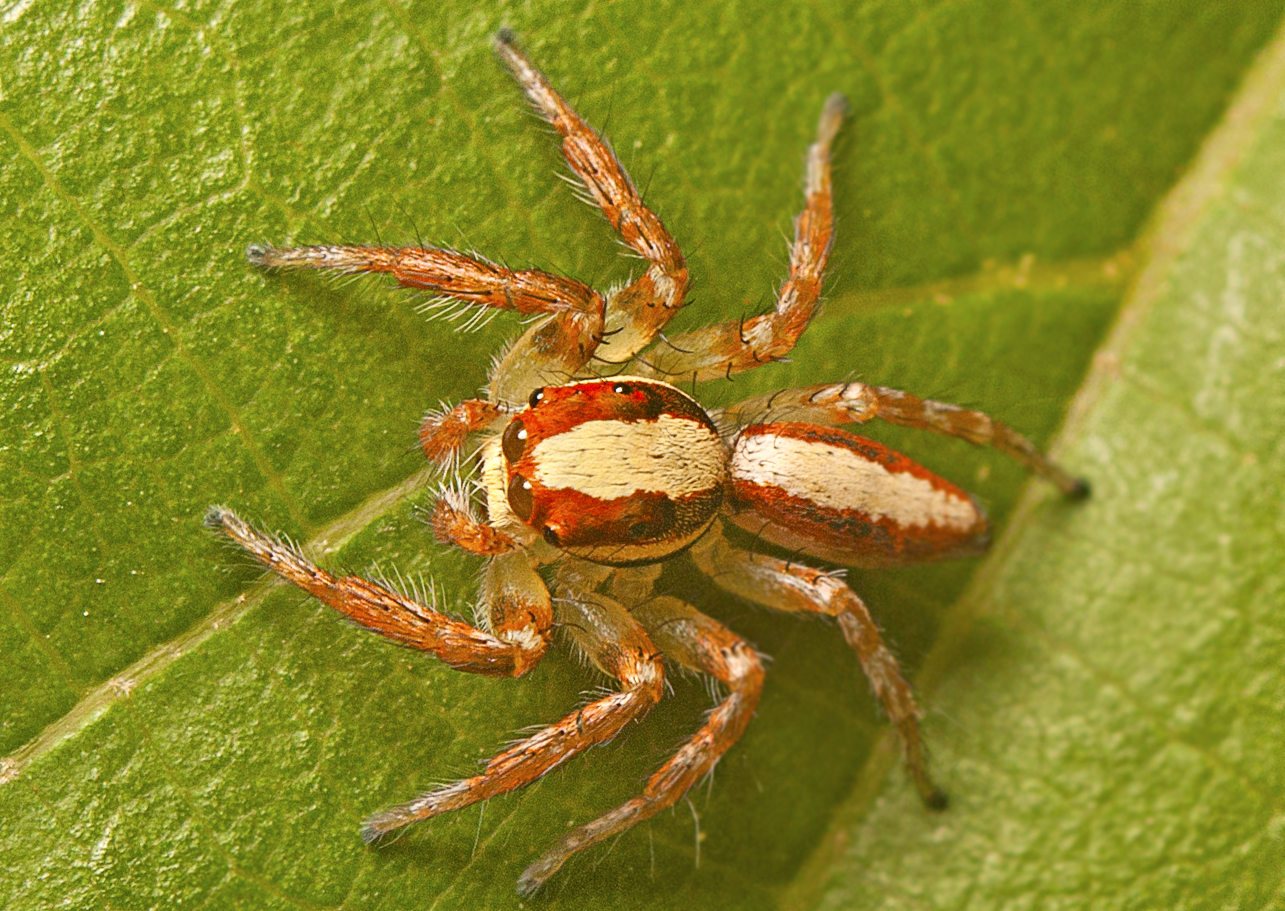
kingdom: Animalia
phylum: Arthropoda
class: Arachnida
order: Araneae
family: Salticidae
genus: Cytaea
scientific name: Cytaea alburna
